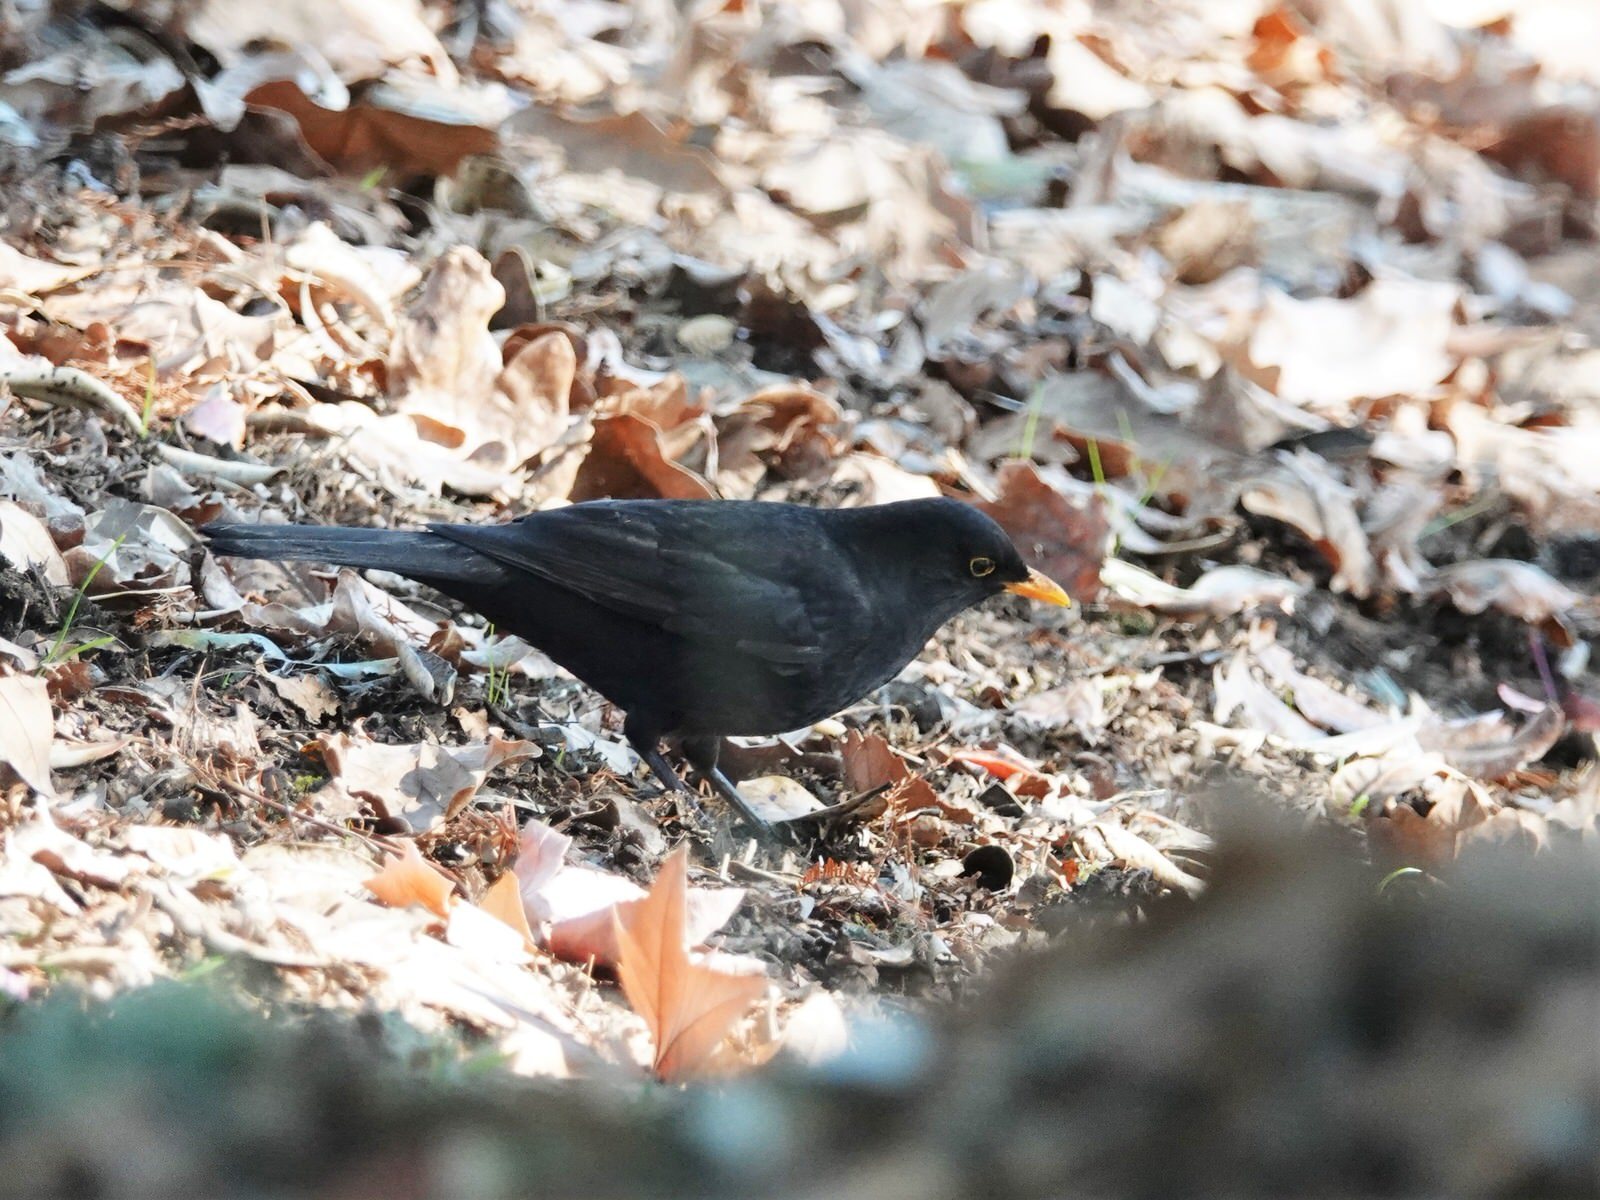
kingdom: Animalia
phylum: Chordata
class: Aves
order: Passeriformes
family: Turdidae
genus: Turdus
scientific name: Turdus merula
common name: Common blackbird
